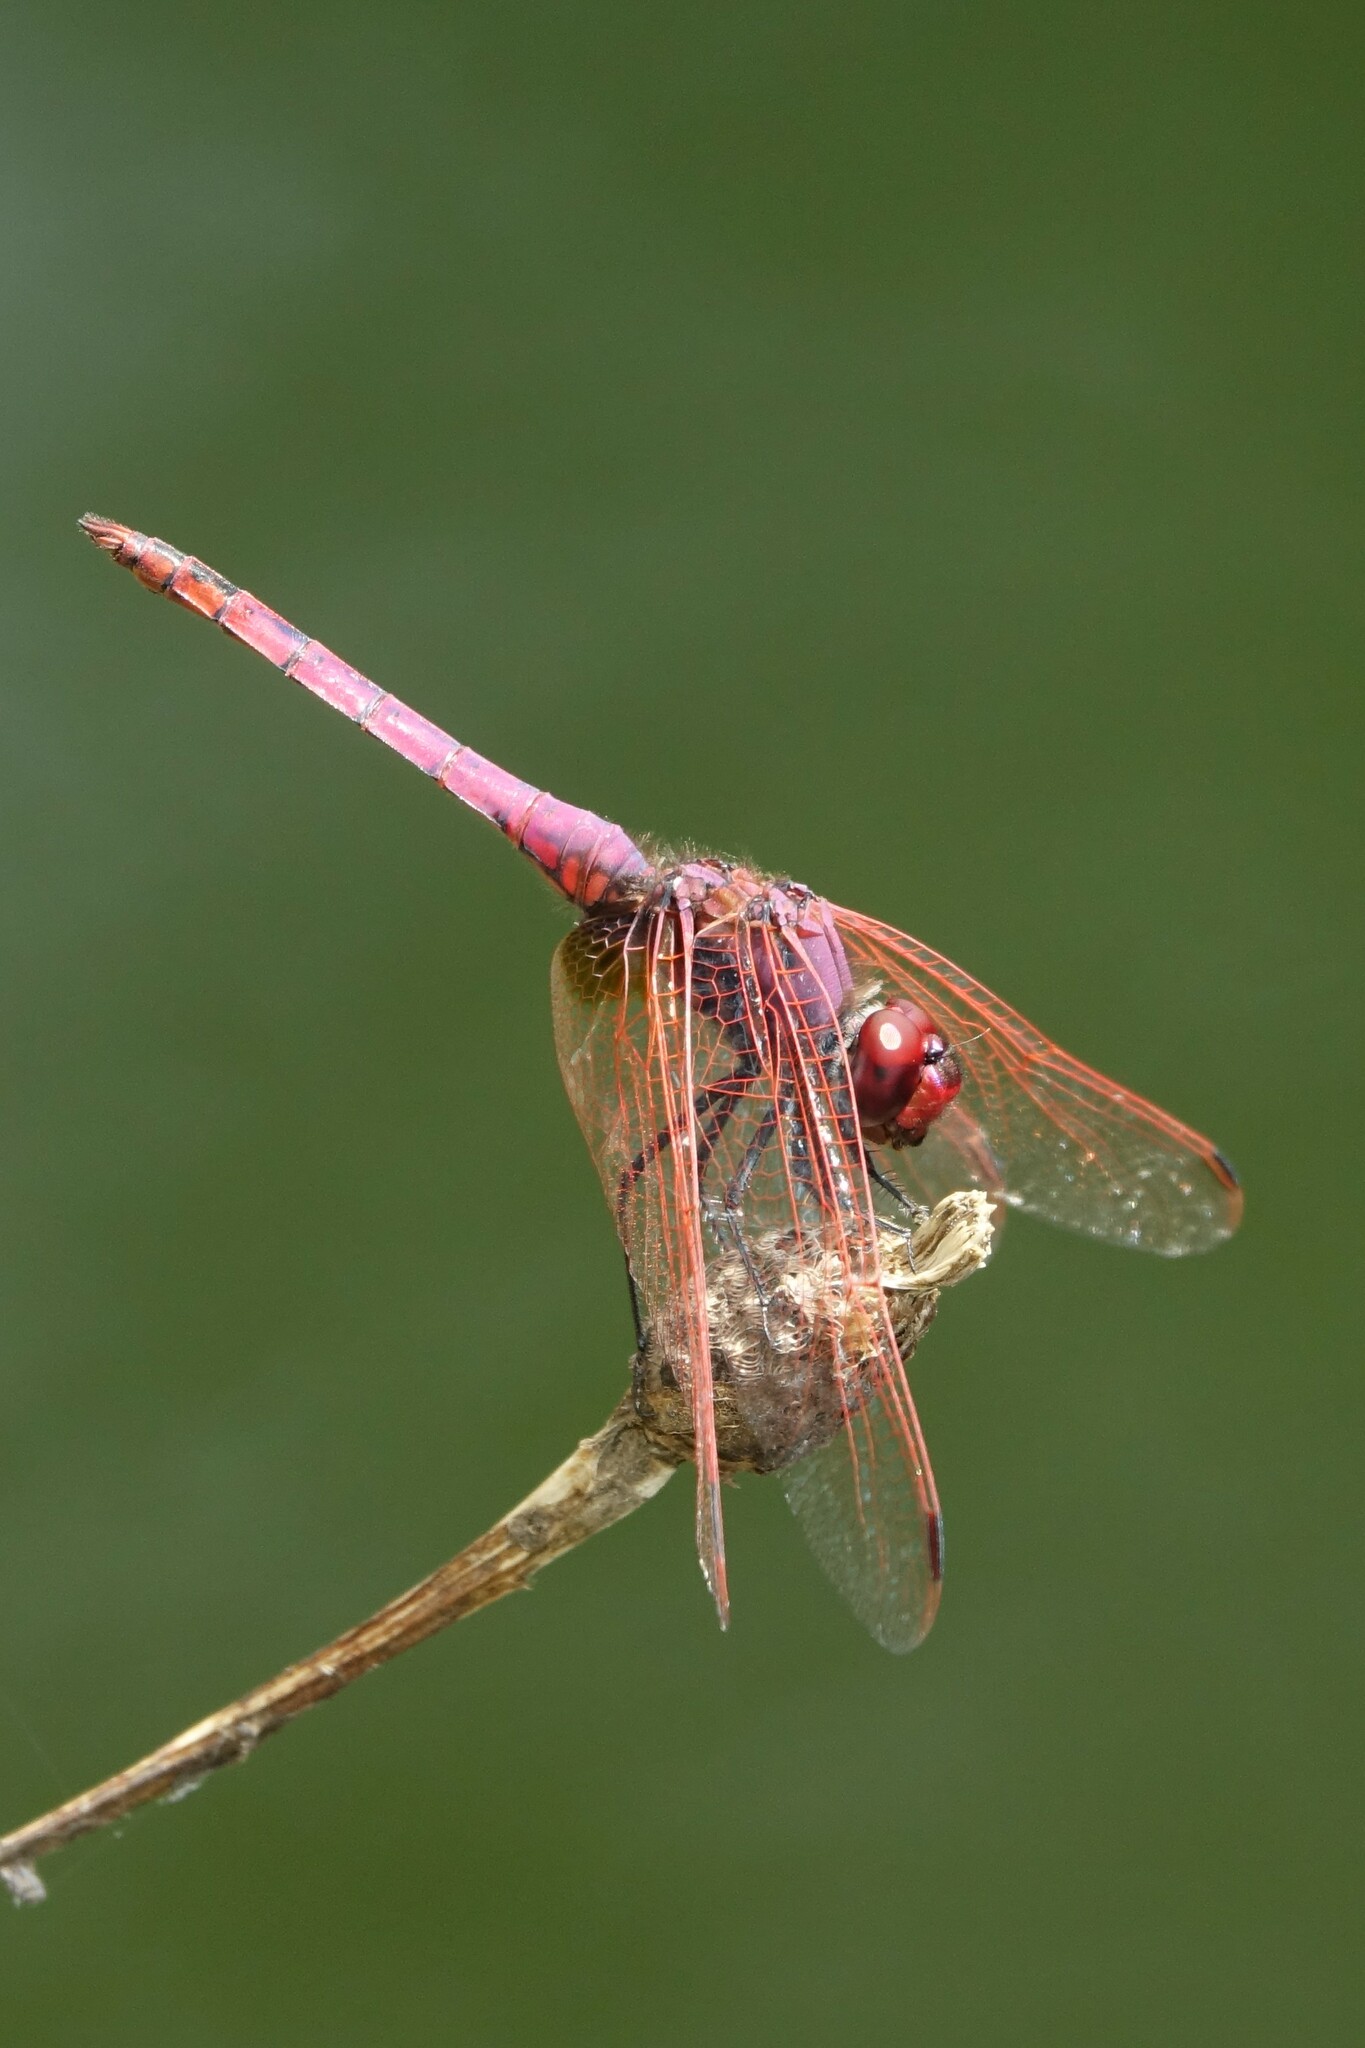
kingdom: Animalia
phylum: Arthropoda
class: Insecta
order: Odonata
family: Libellulidae
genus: Trithemis
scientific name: Trithemis annulata
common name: Violet dropwing
